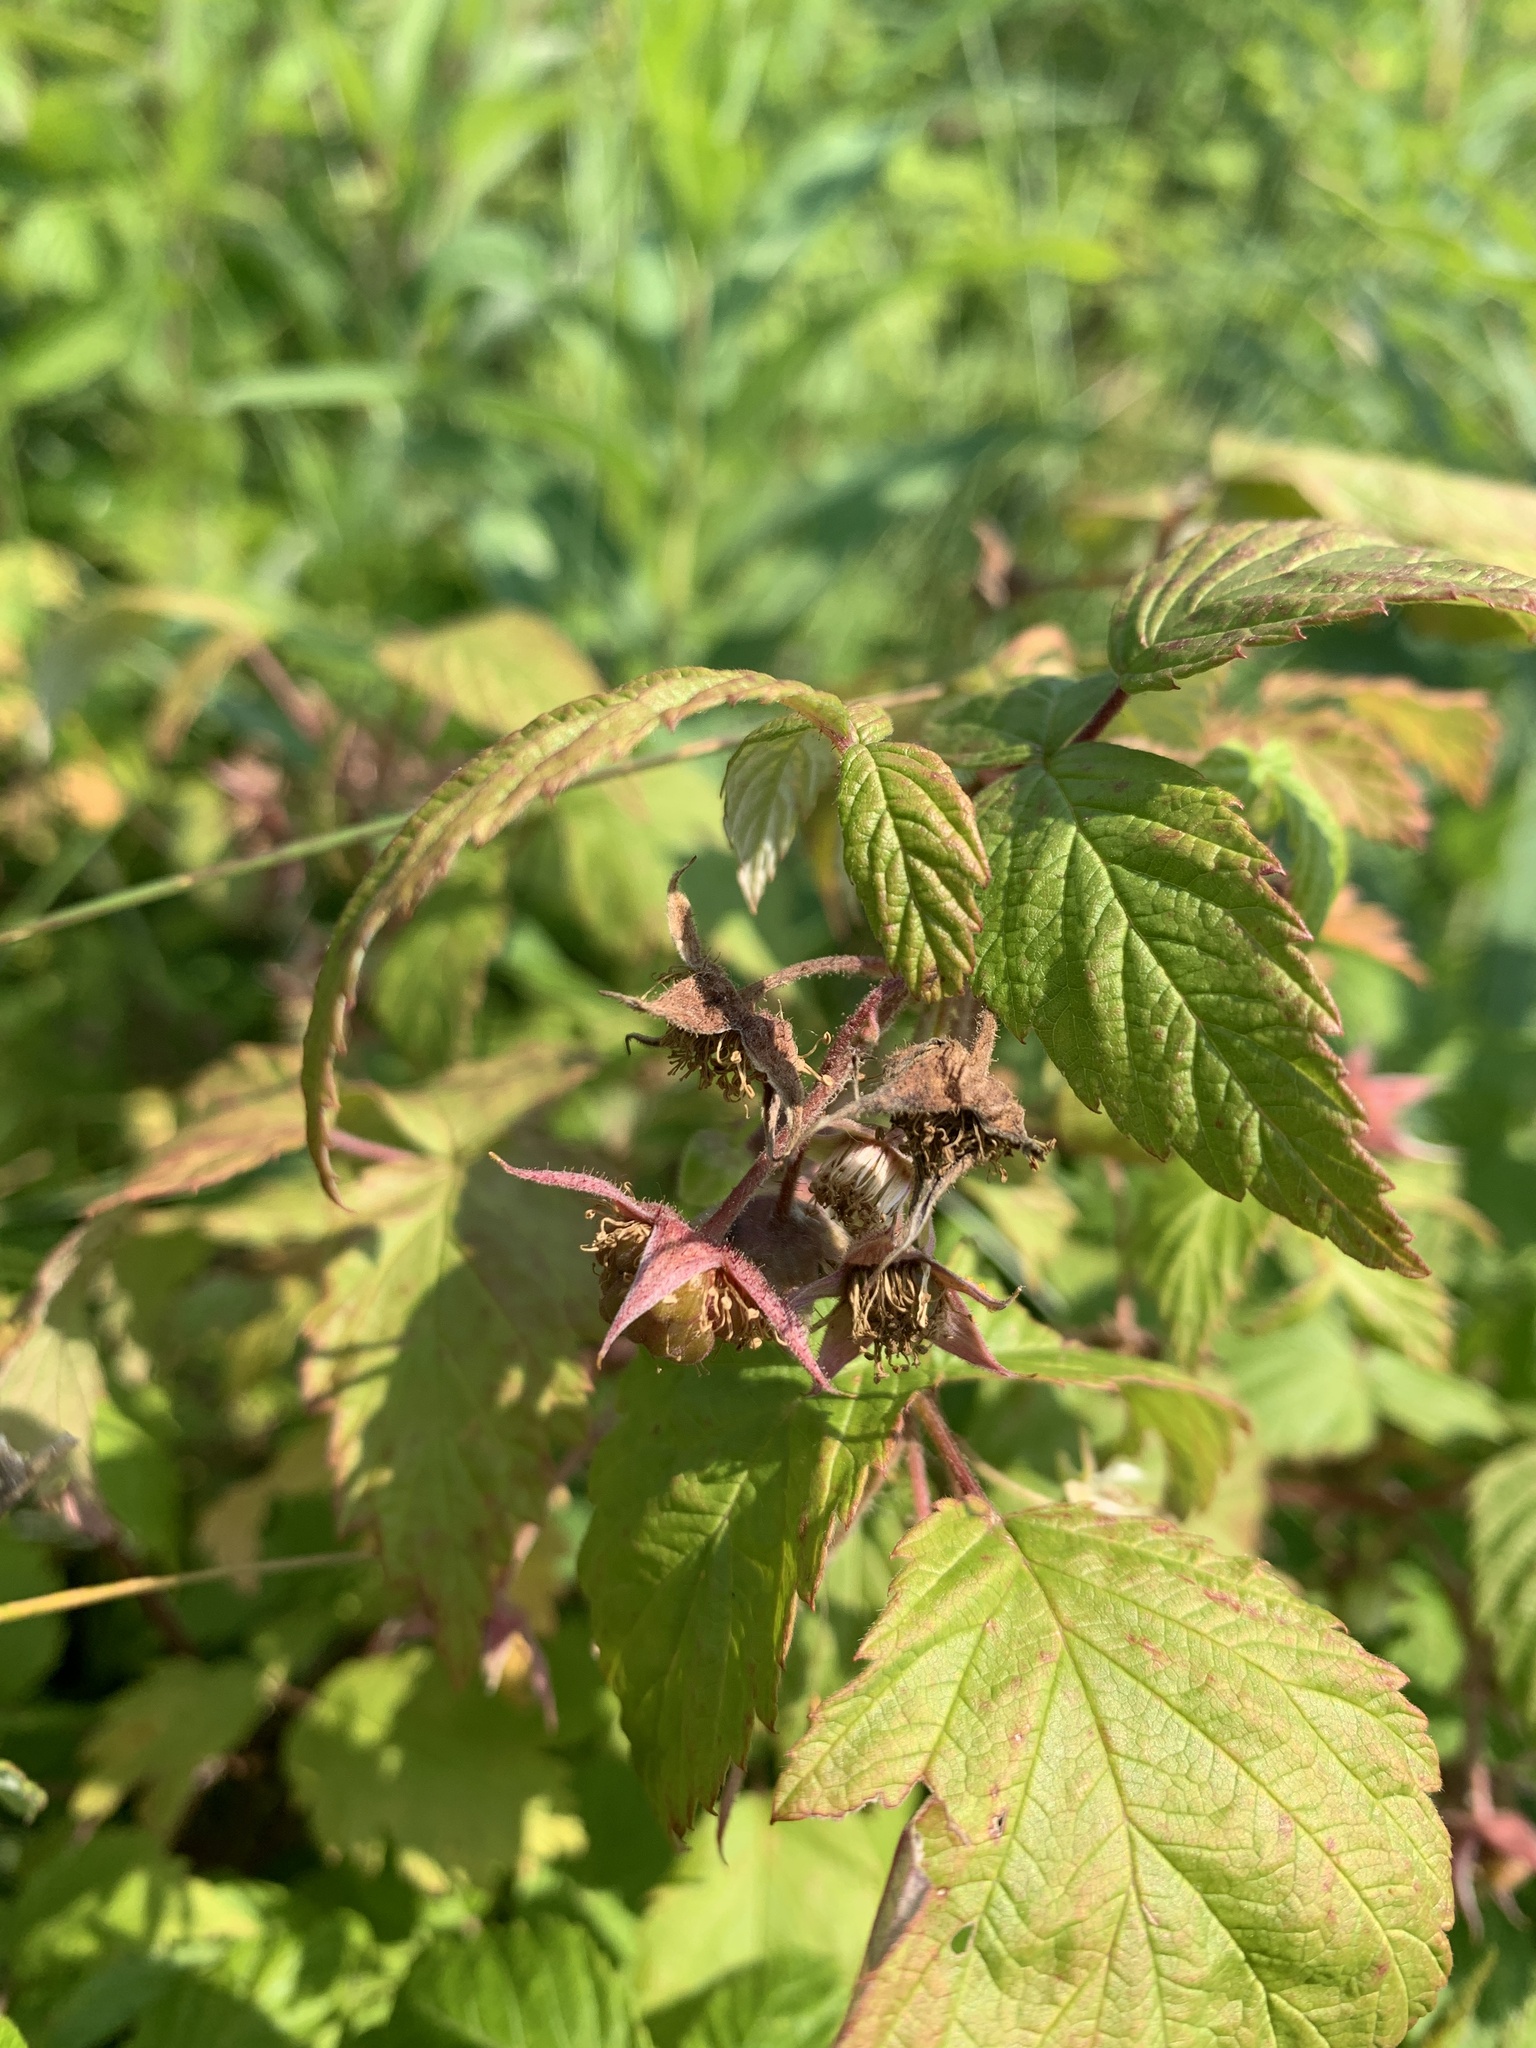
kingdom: Plantae
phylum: Tracheophyta
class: Magnoliopsida
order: Rosales
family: Rosaceae
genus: Rubus
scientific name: Rubus idaeus
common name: Raspberry
